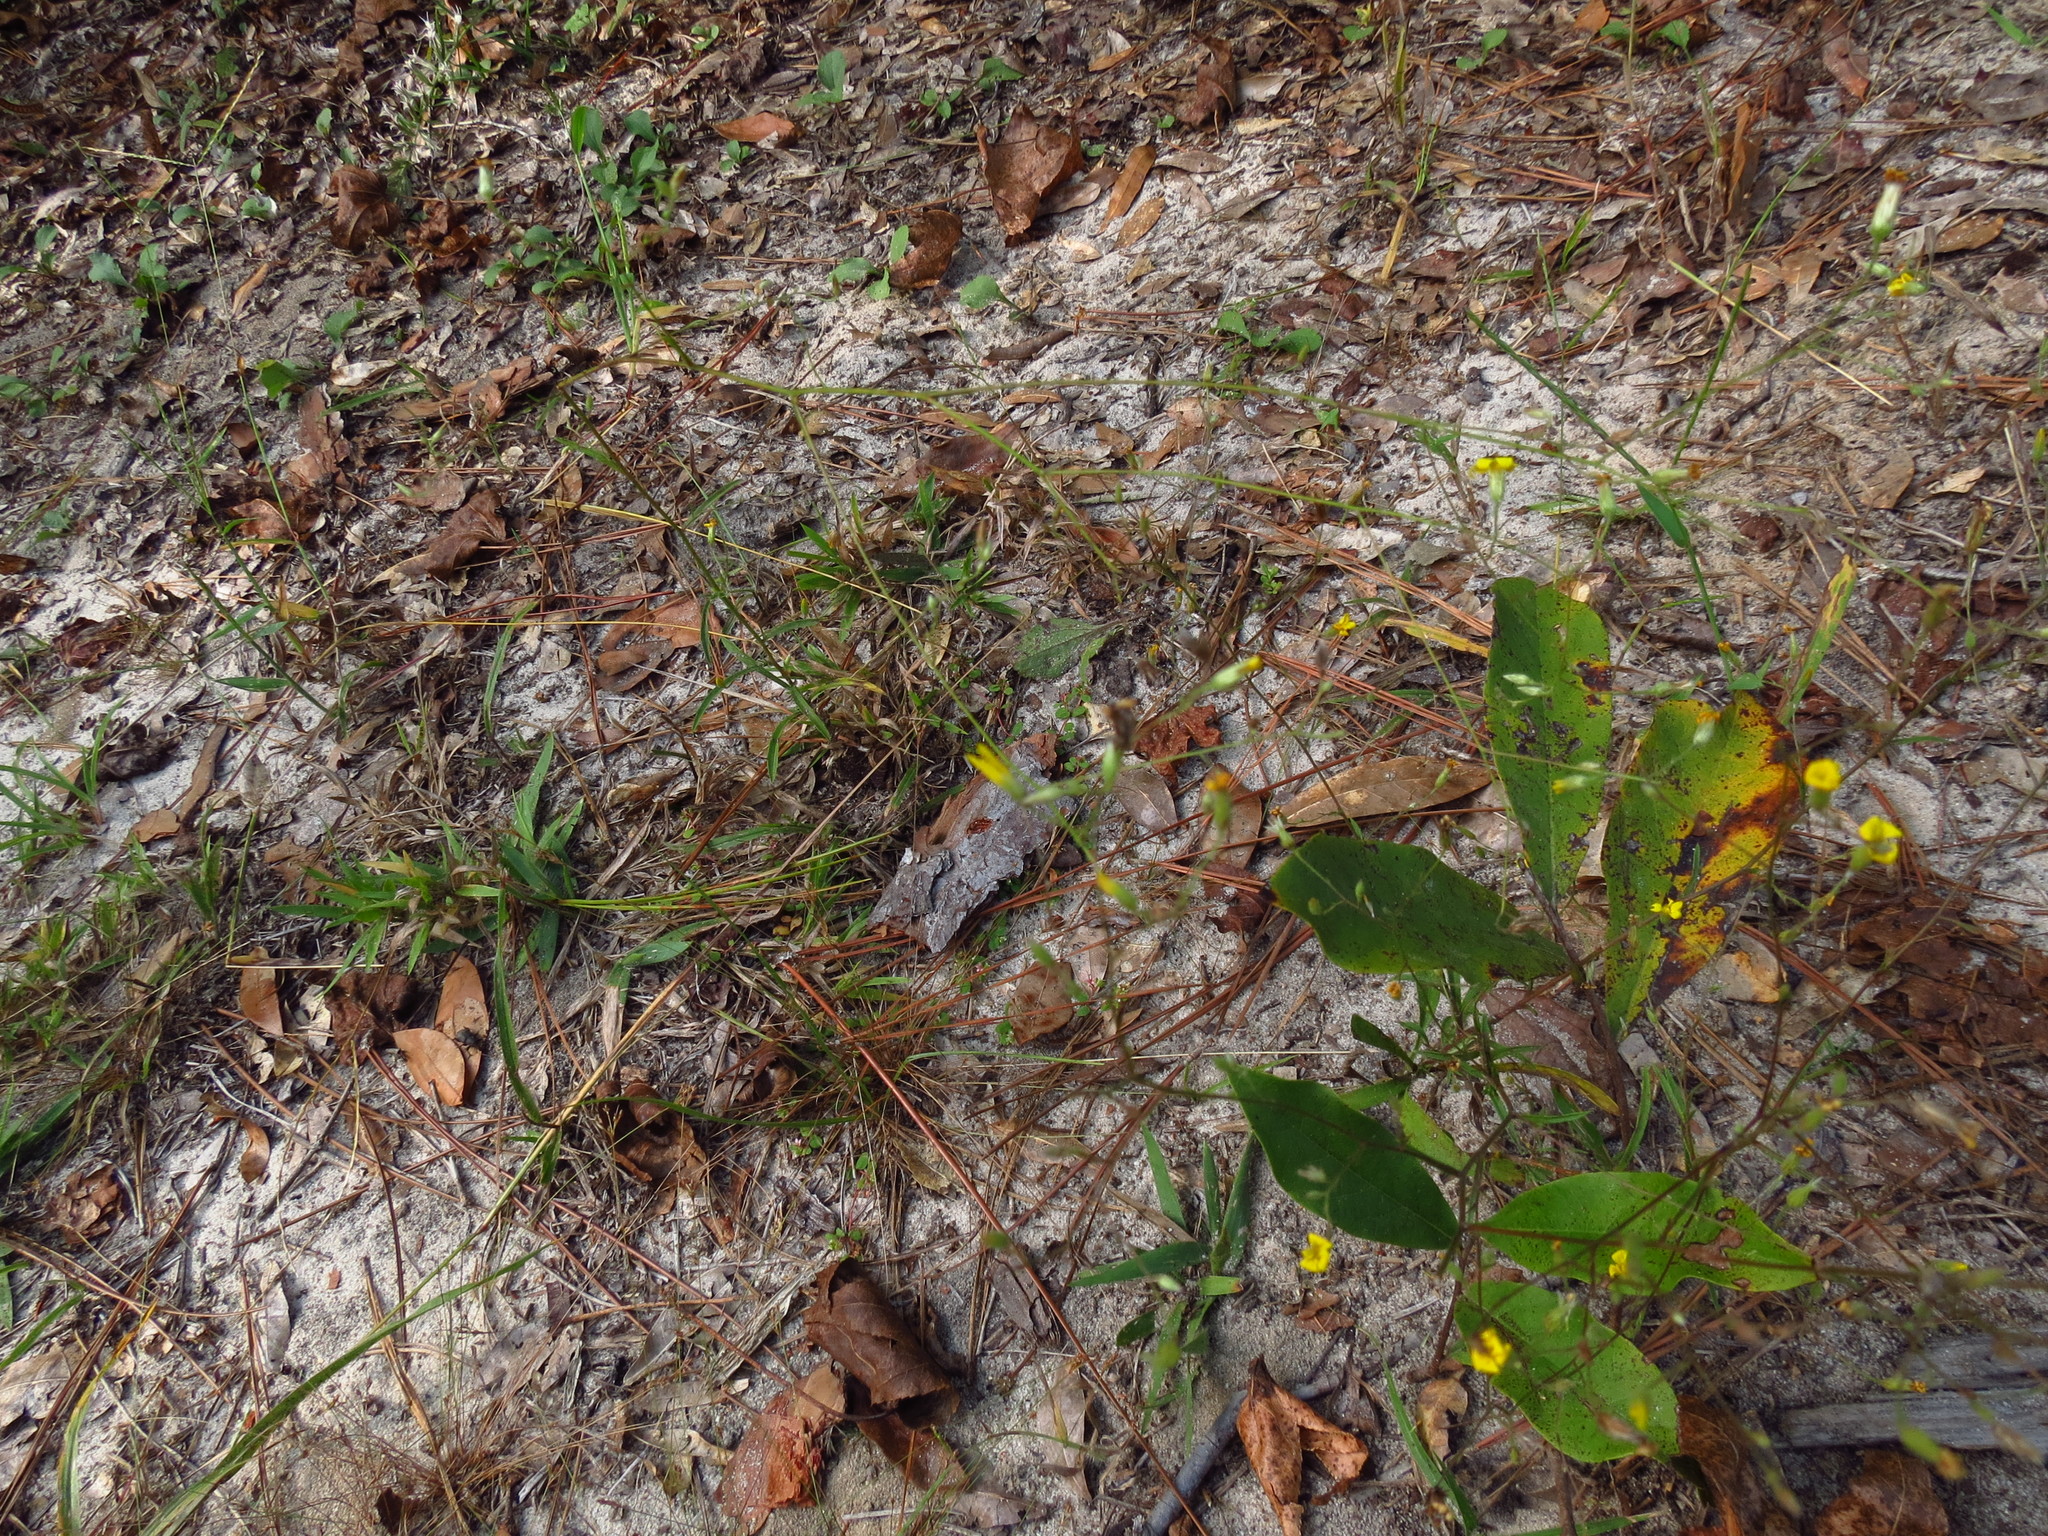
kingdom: Plantae
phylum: Tracheophyta
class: Magnoliopsida
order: Asterales
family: Asteraceae
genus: Croptilon
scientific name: Croptilon divaricatum
